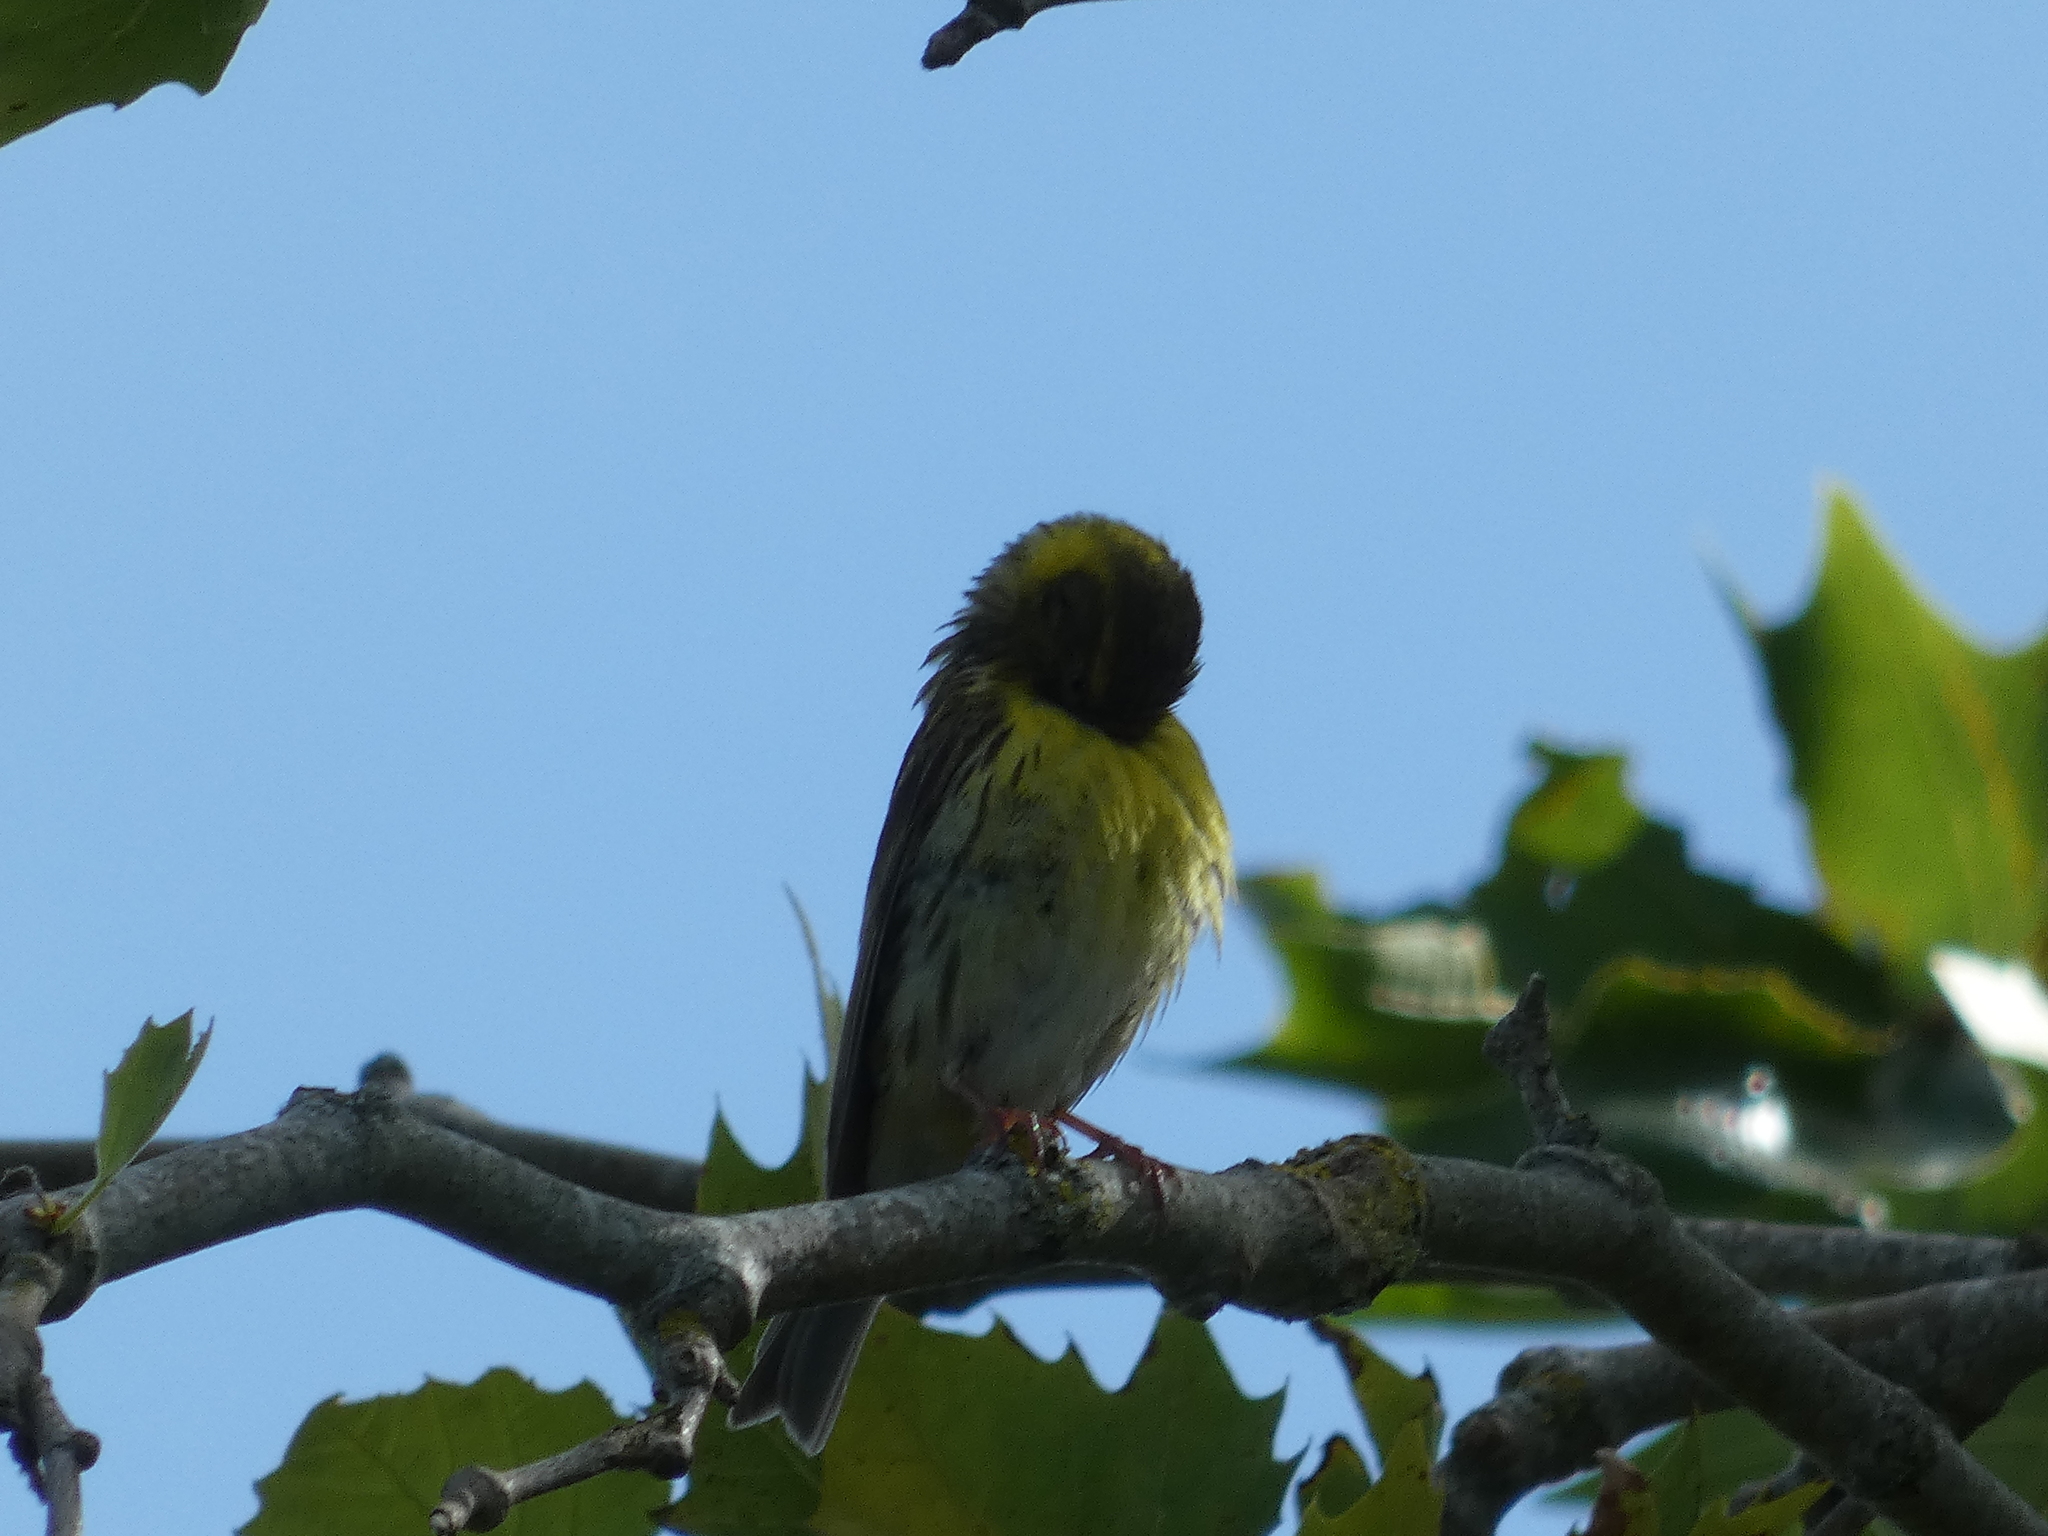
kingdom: Animalia
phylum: Chordata
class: Aves
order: Passeriformes
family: Fringillidae
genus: Serinus
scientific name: Serinus serinus
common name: European serin
